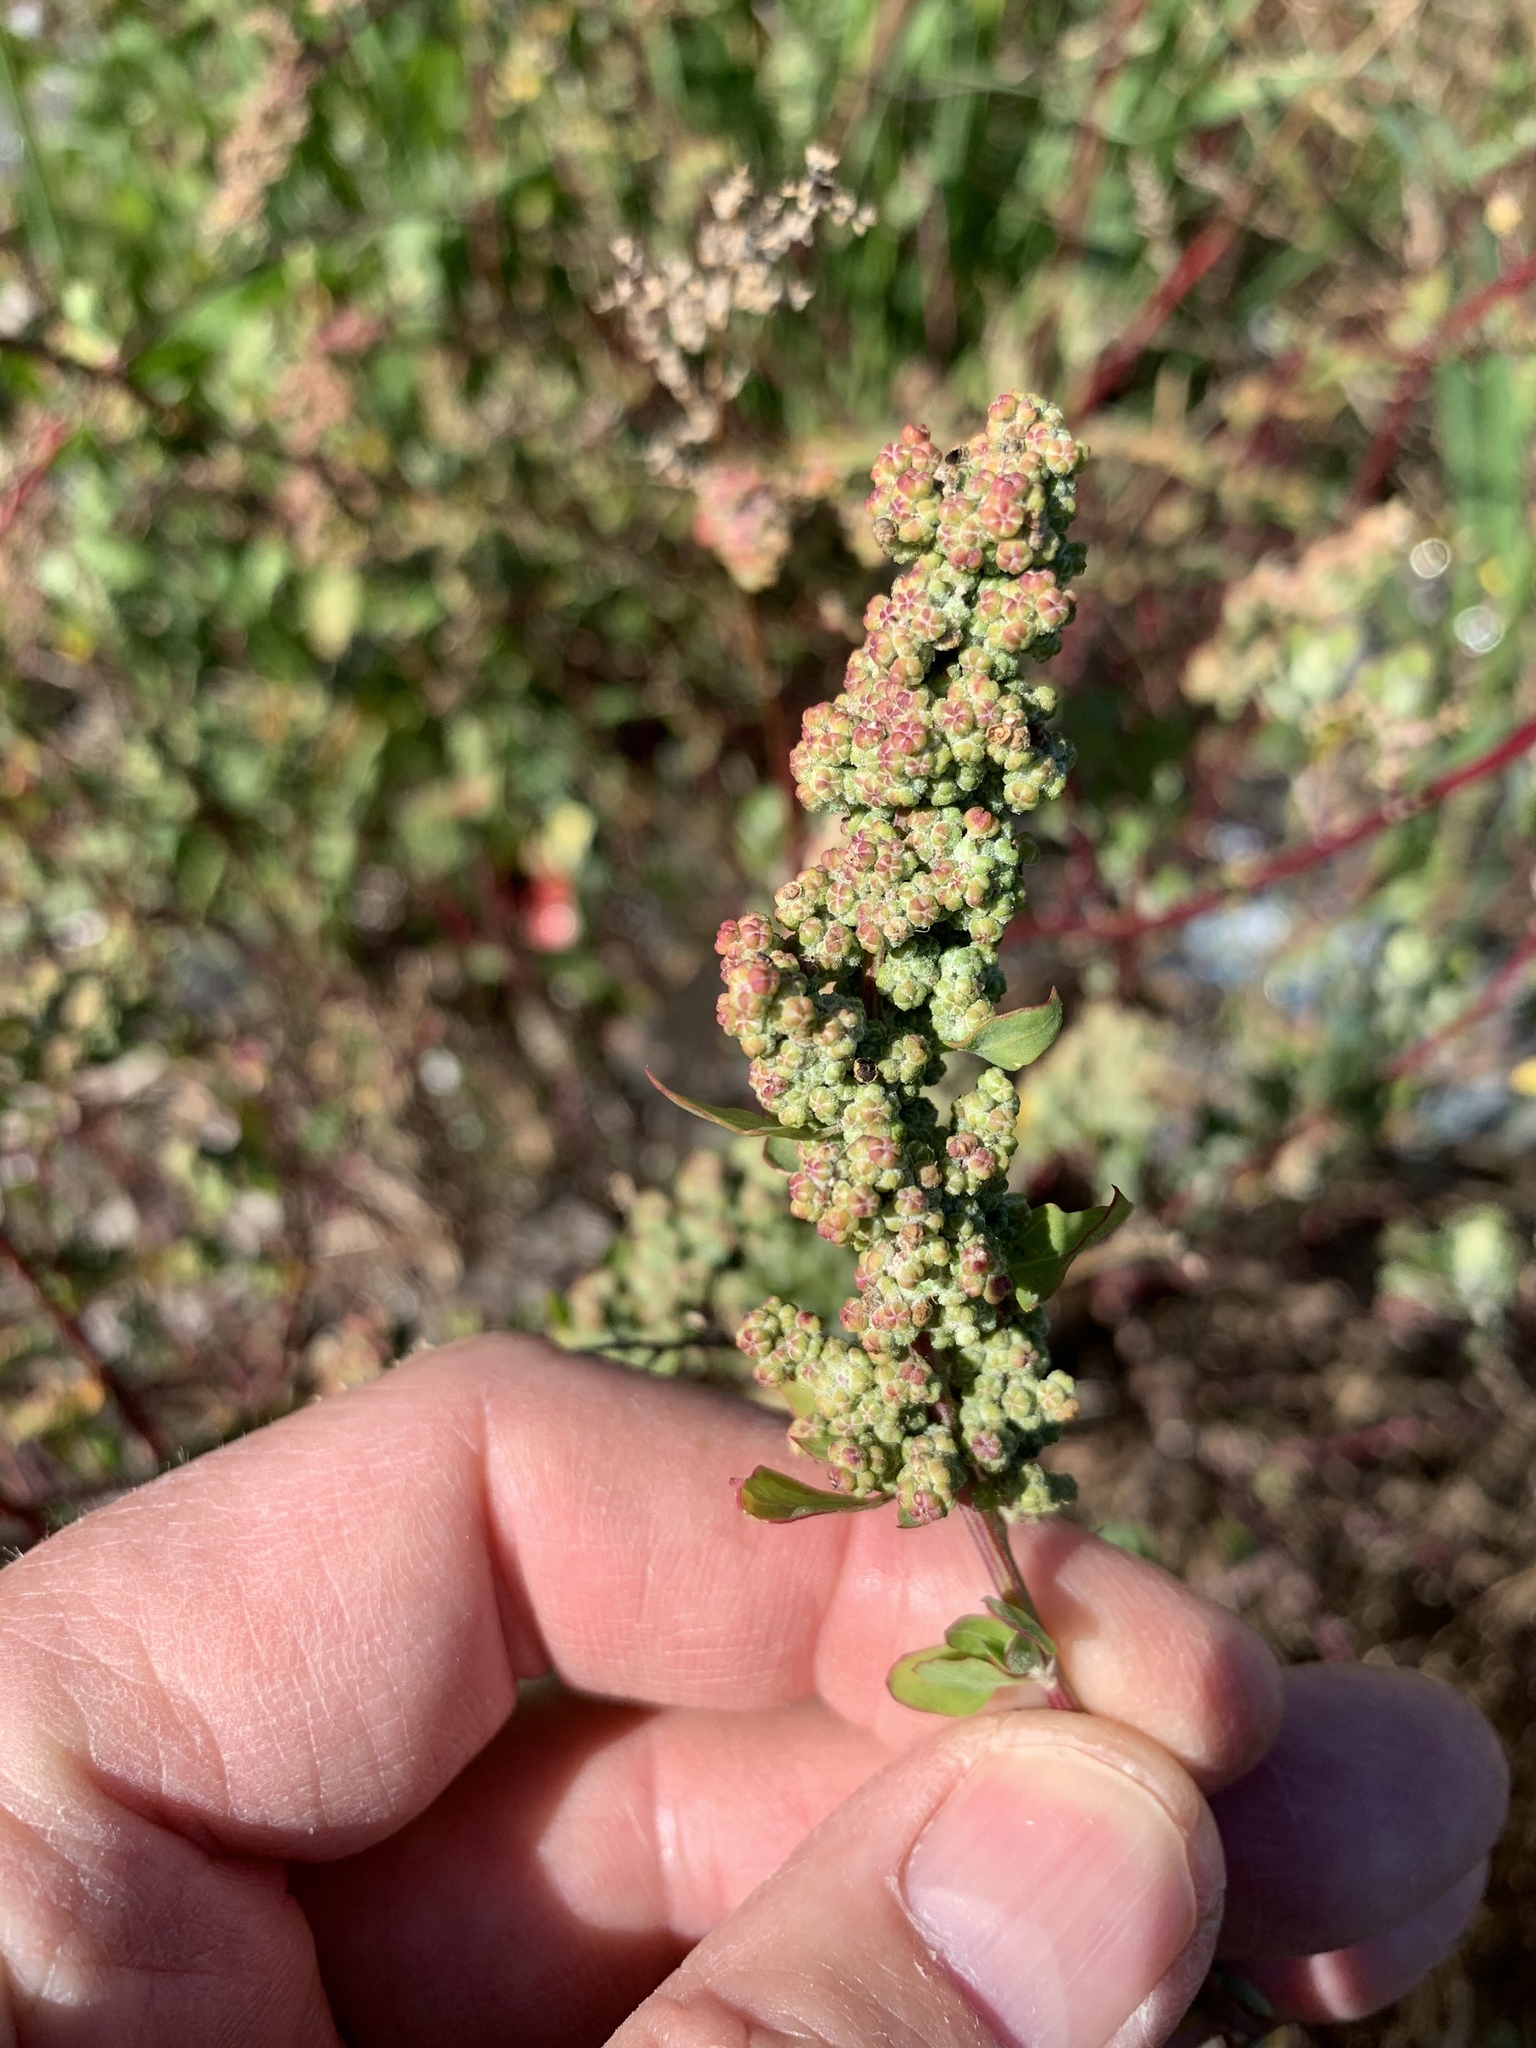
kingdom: Plantae
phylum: Tracheophyta
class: Magnoliopsida
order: Caryophyllales
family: Amaranthaceae
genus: Chenopodium
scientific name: Chenopodium album
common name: Fat-hen
